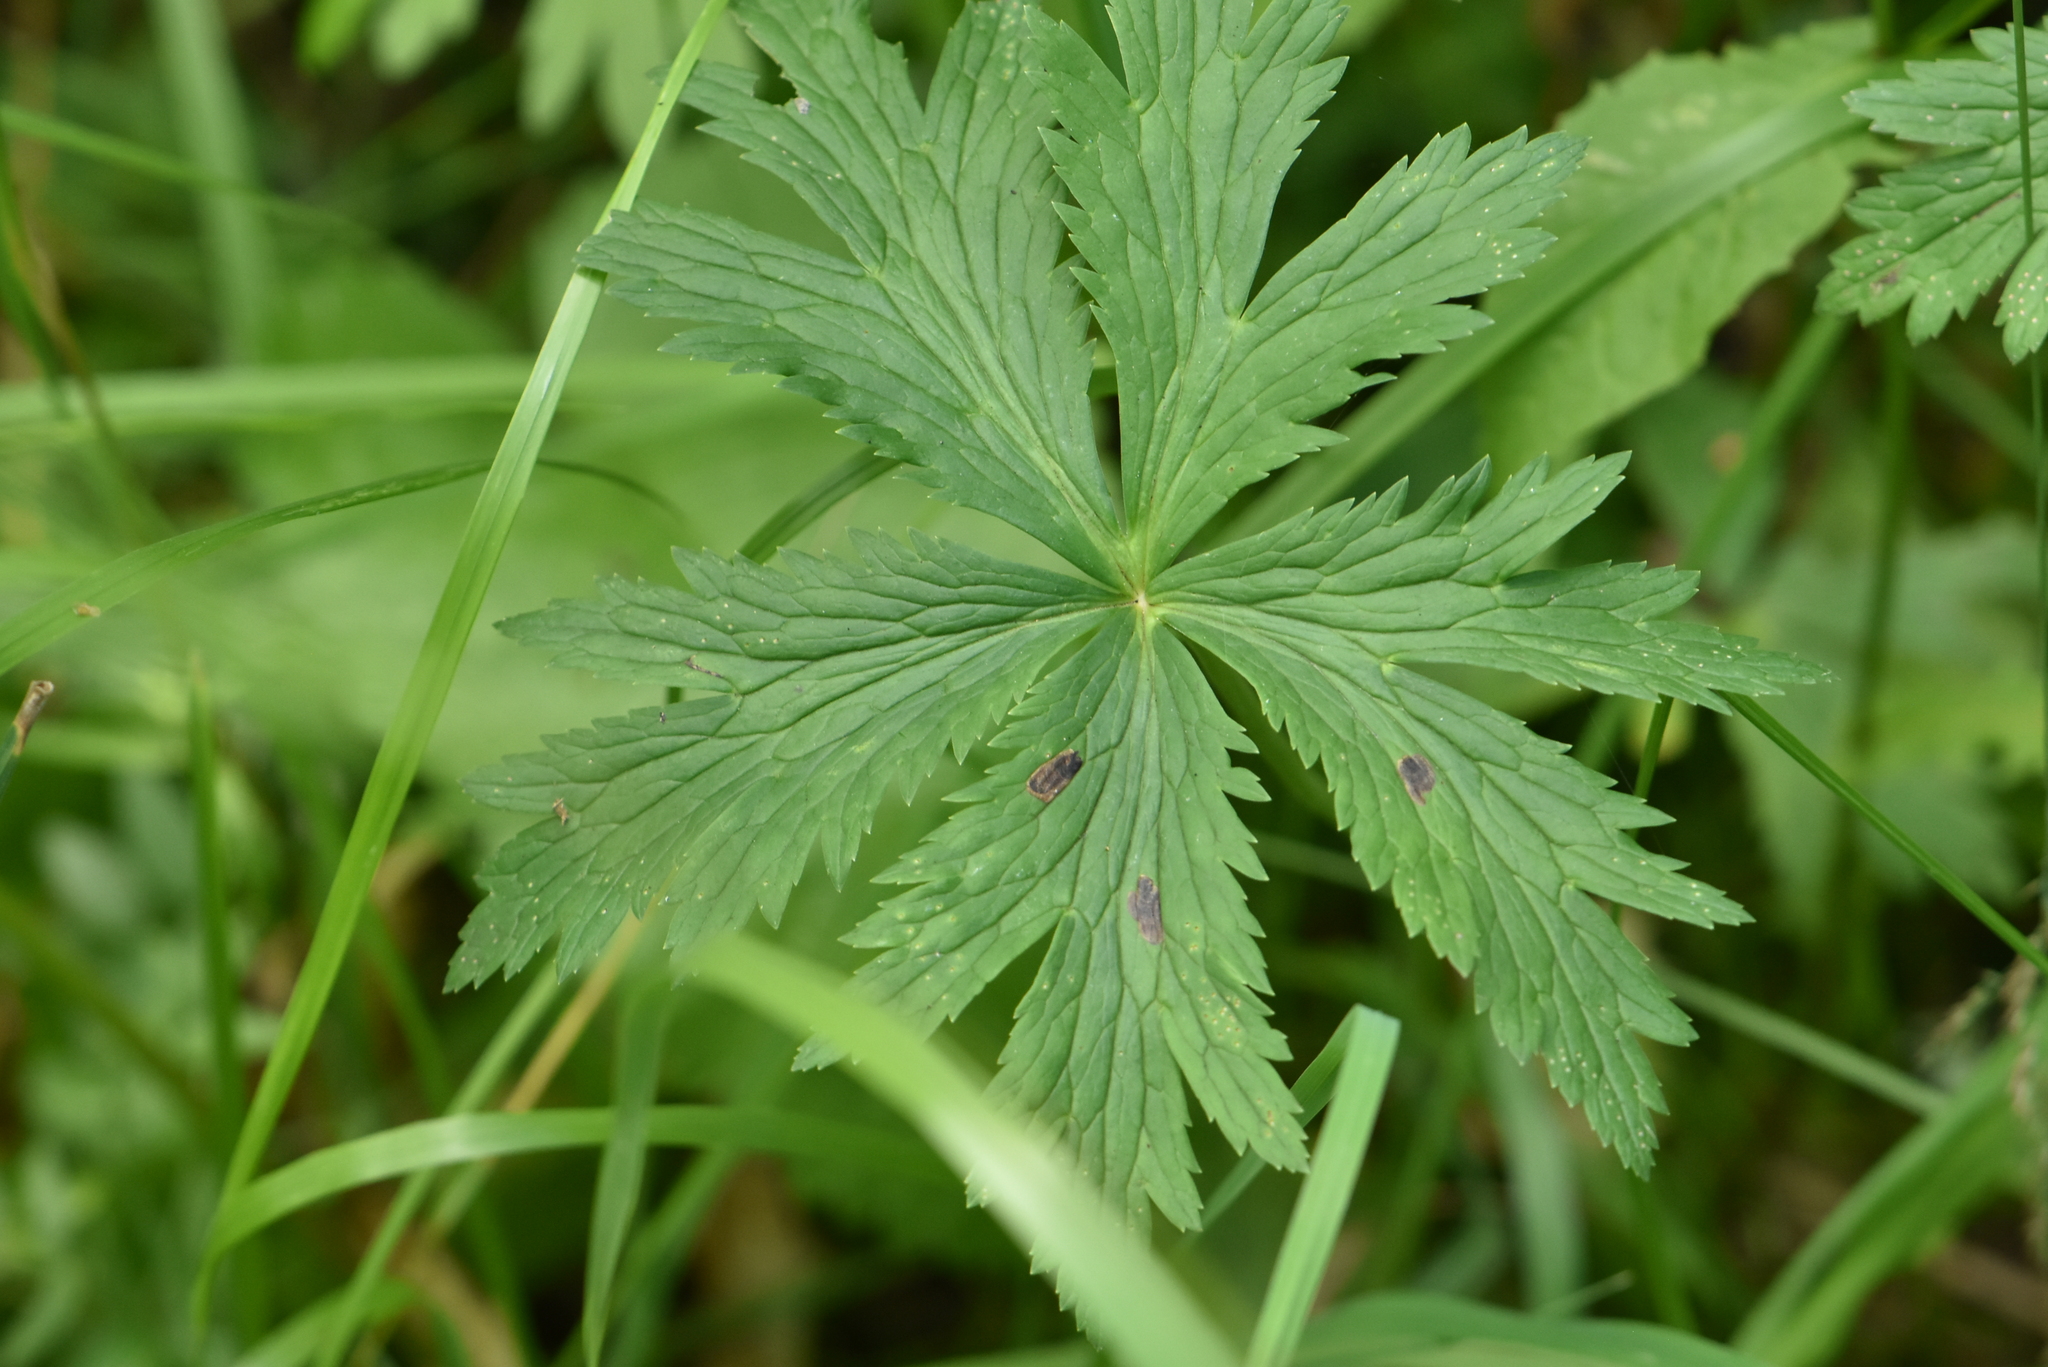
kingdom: Plantae
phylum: Tracheophyta
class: Magnoliopsida
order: Ranunculales
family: Ranunculaceae
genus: Trollius
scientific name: Trollius europaeus
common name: European globeflower
